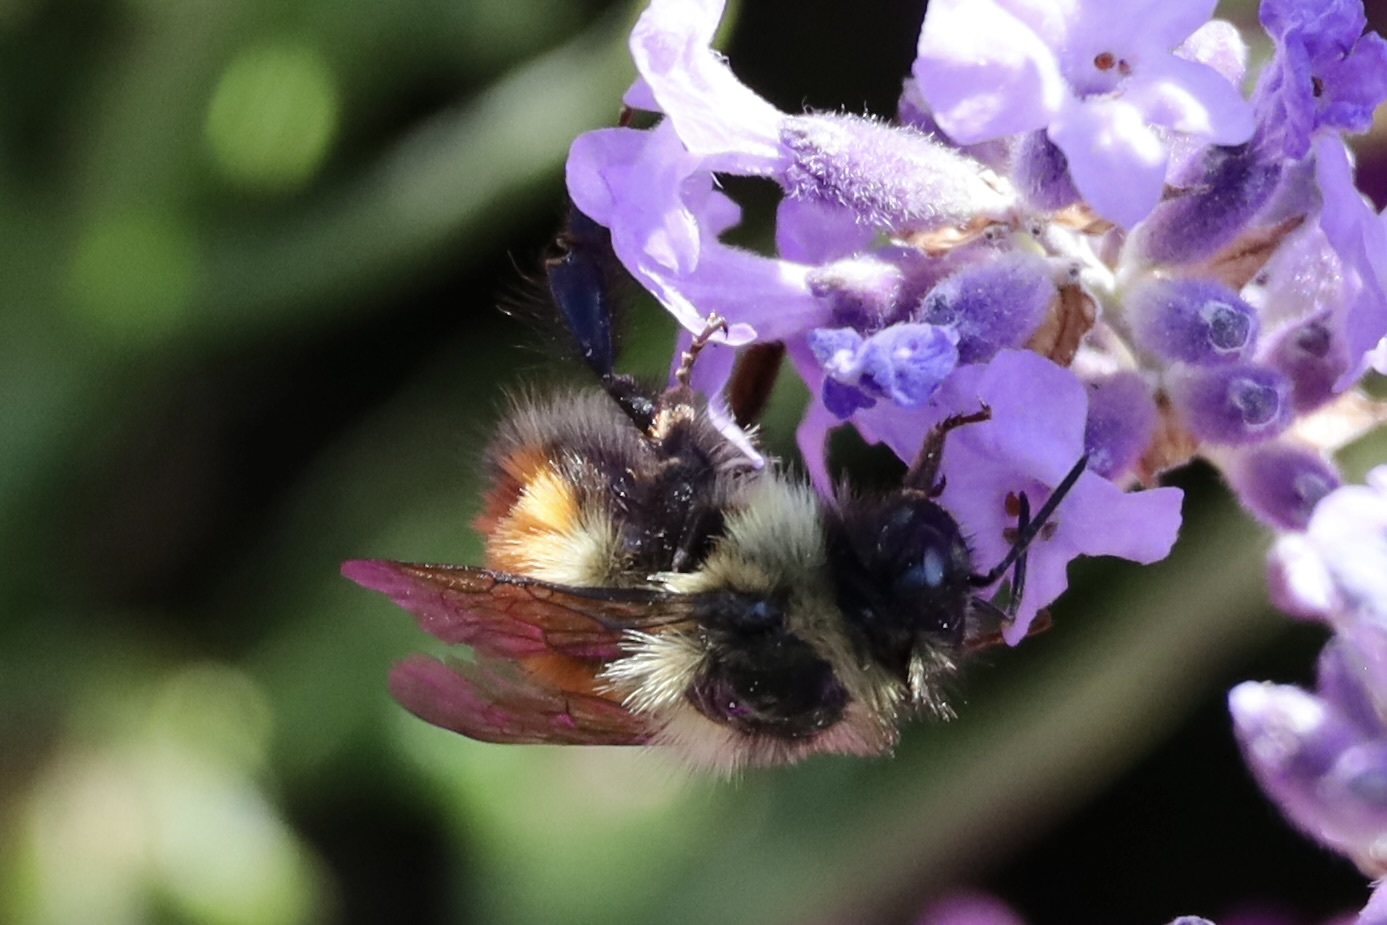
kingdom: Animalia
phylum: Arthropoda
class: Insecta
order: Hymenoptera
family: Apidae
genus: Bombus
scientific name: Bombus melanopygus
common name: Black tail bumble bee
